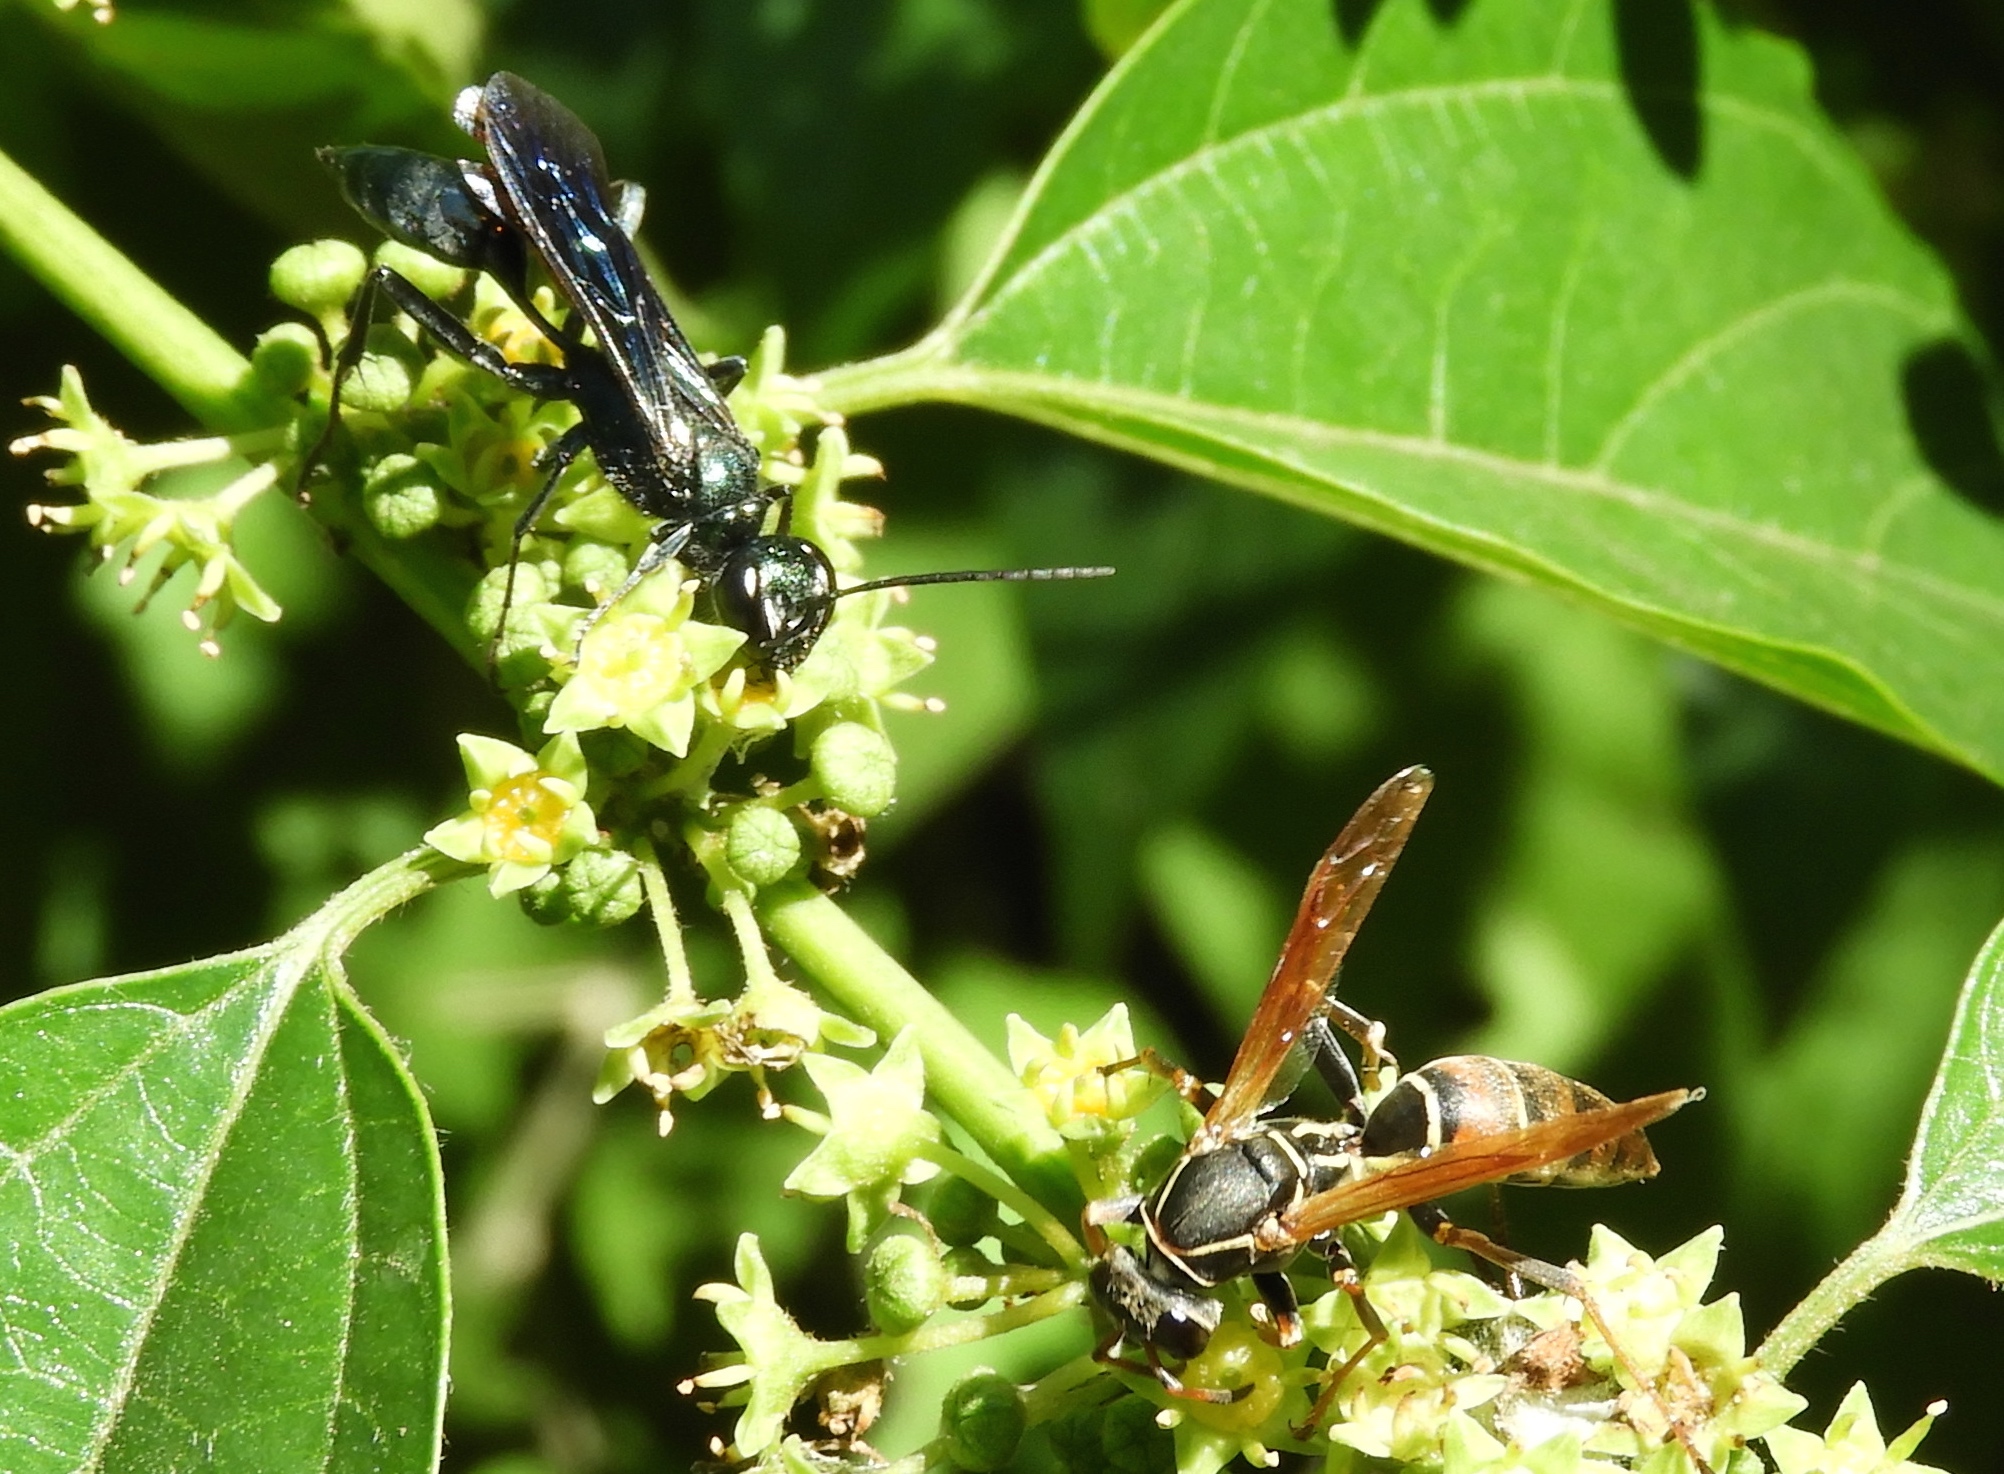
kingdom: Animalia
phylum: Arthropoda
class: Insecta
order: Hymenoptera
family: Sphecidae
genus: Chalybion
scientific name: Chalybion
